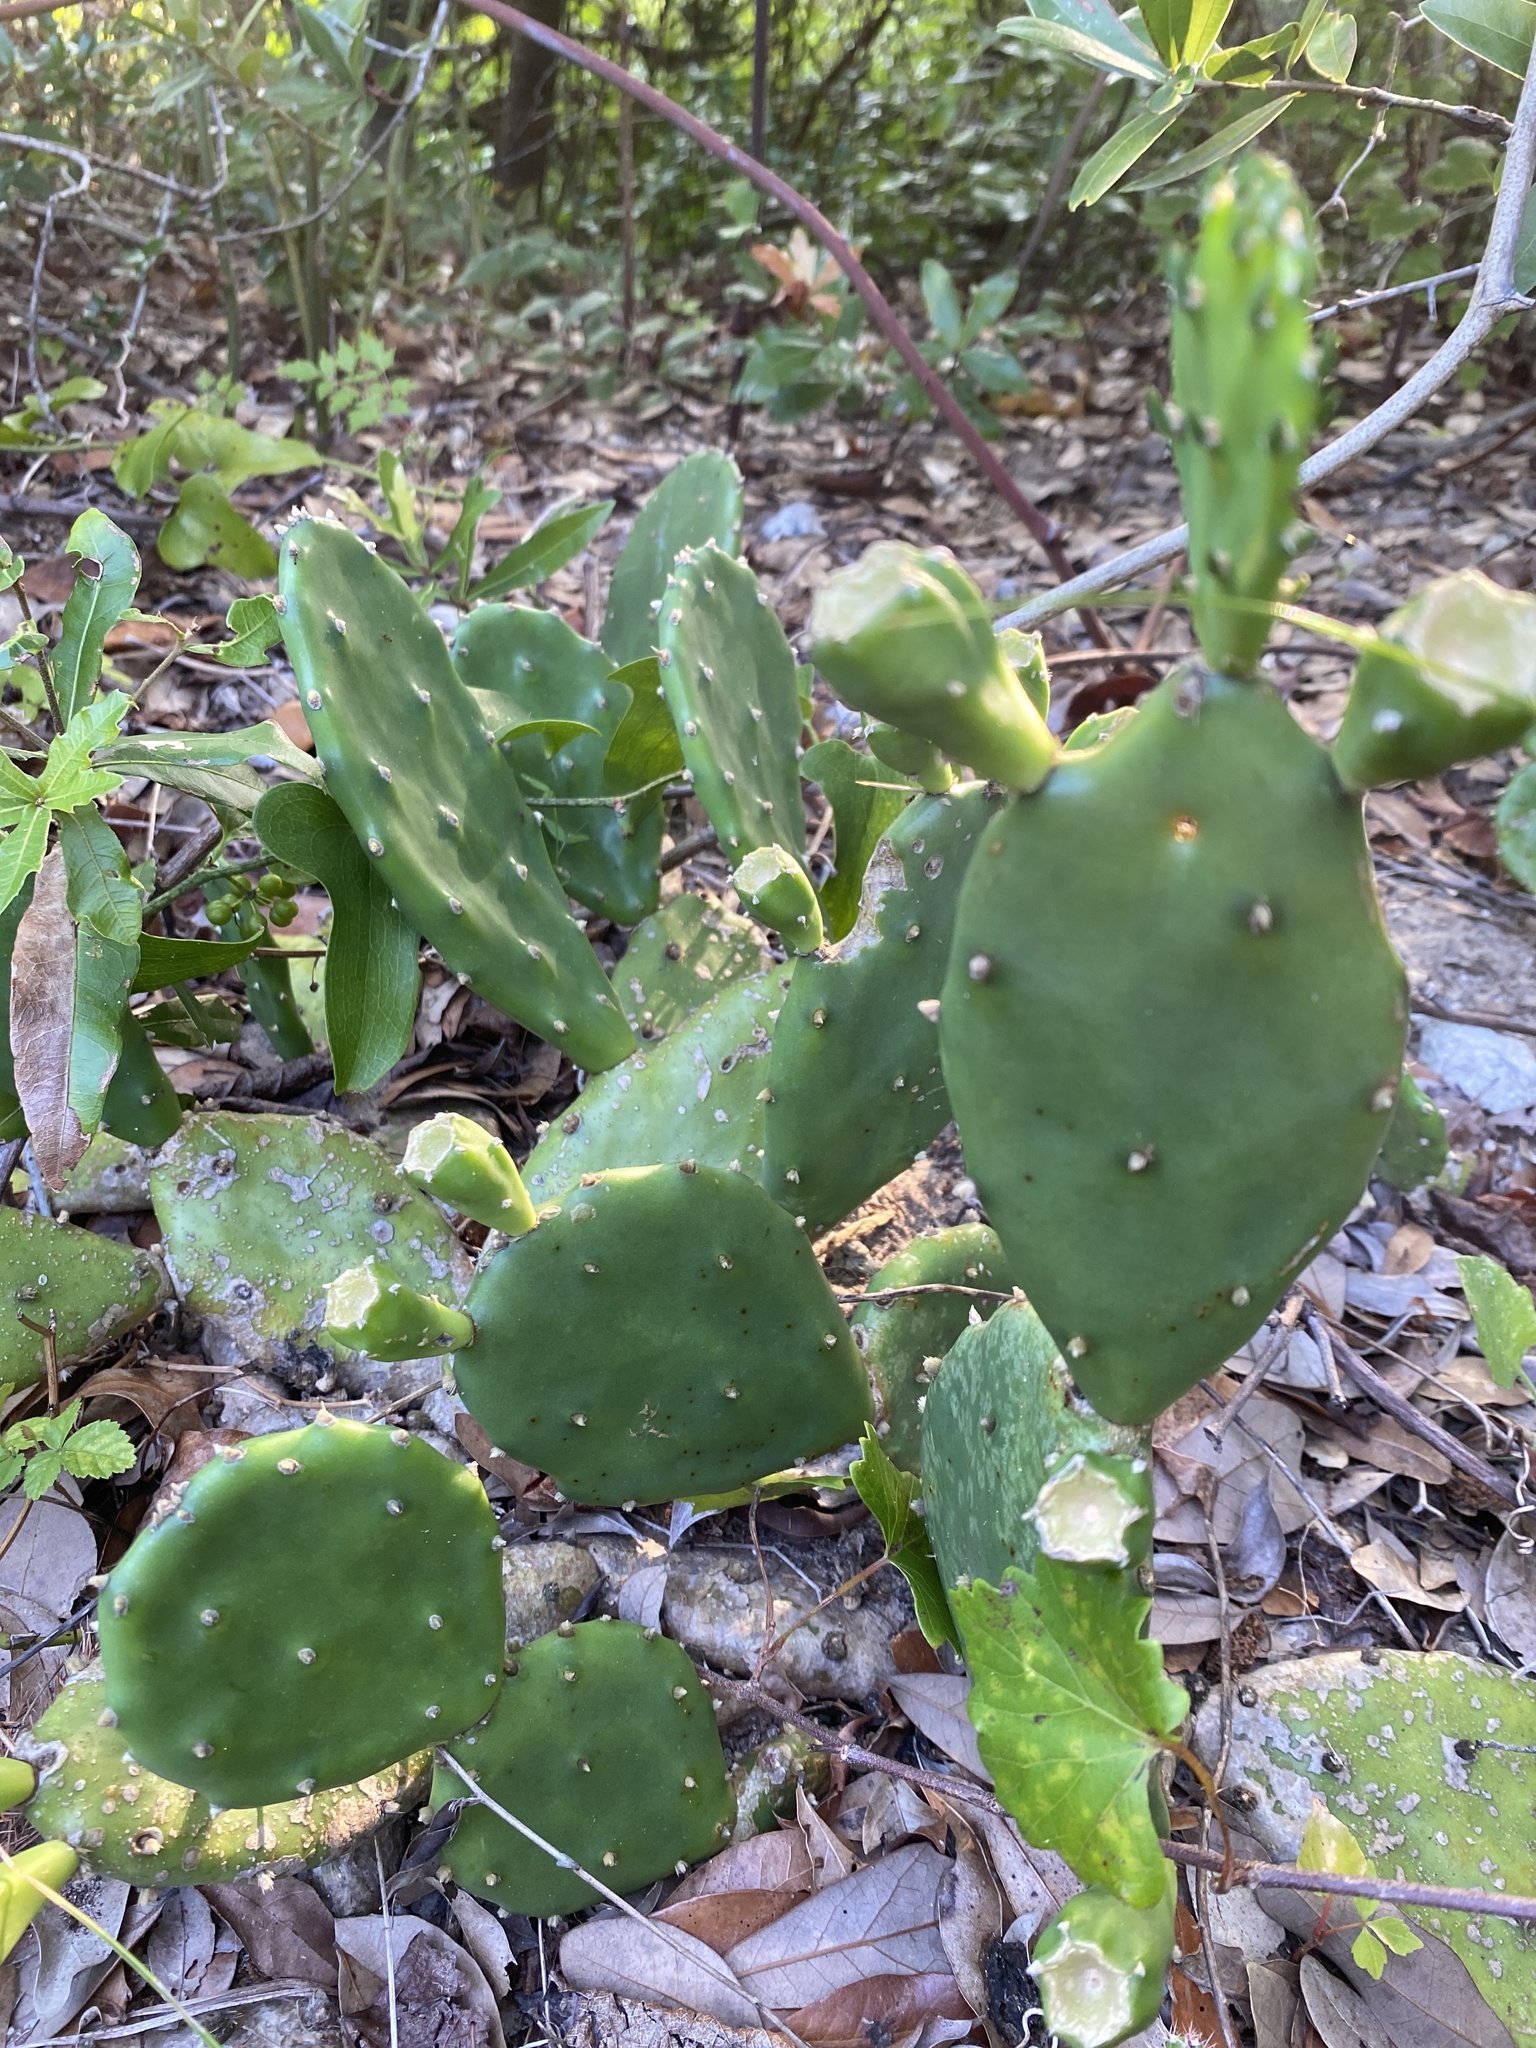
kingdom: Plantae
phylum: Tracheophyta
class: Magnoliopsida
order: Caryophyllales
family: Cactaceae
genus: Opuntia
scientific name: Opuntia mesacantha
